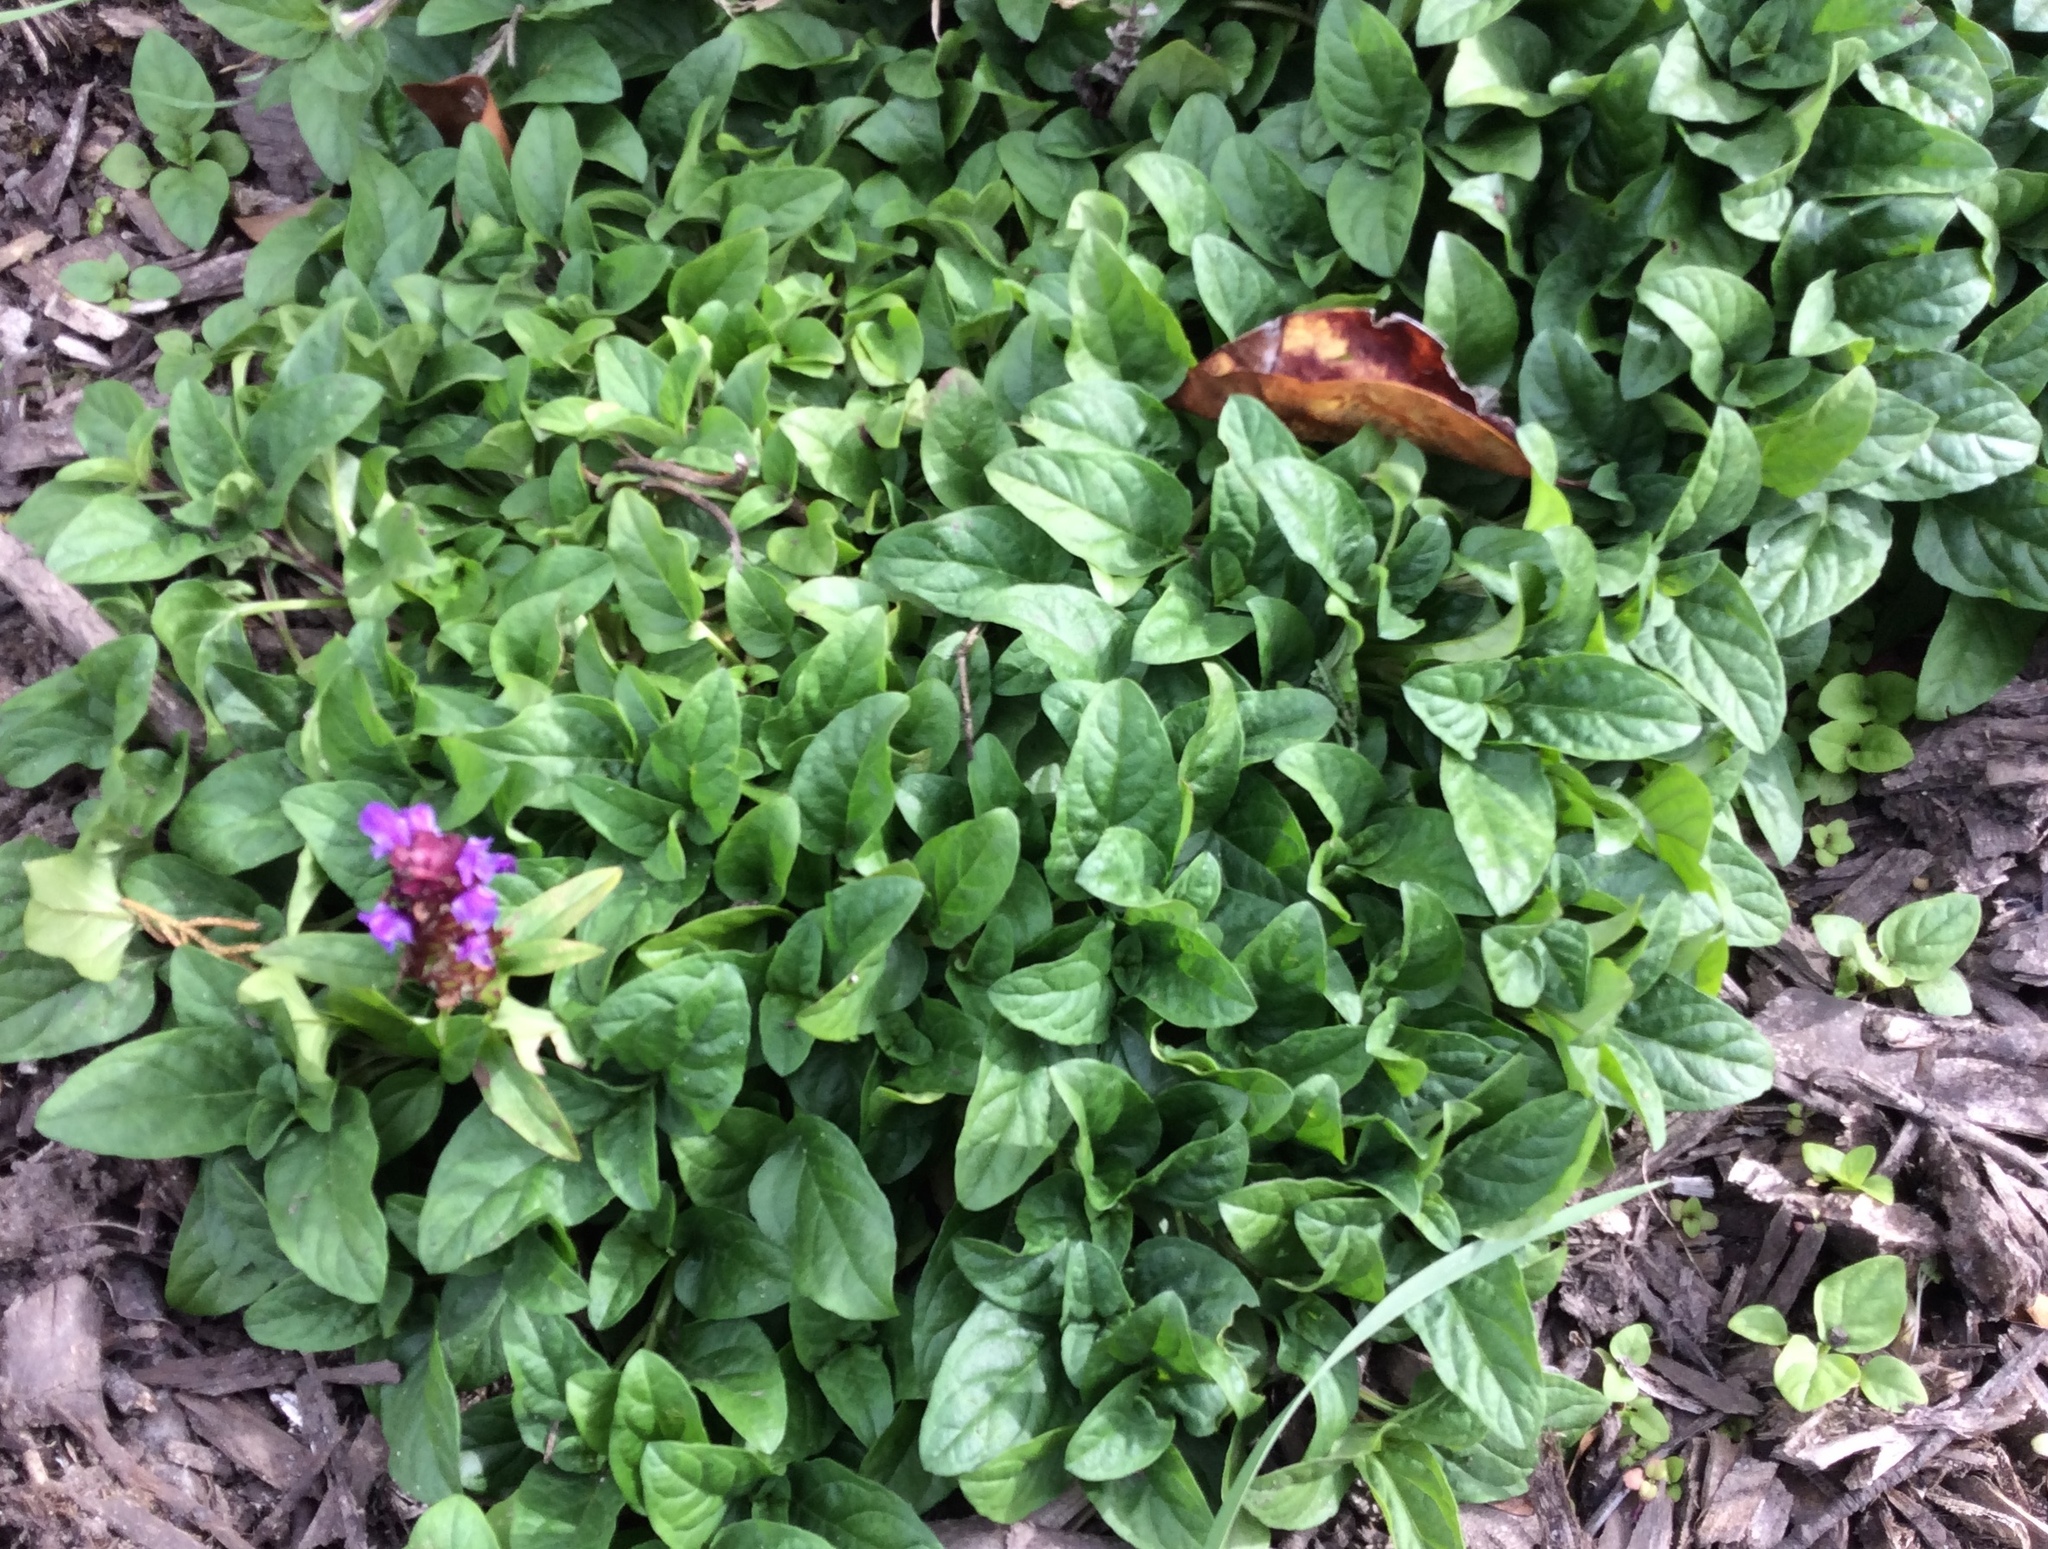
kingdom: Plantae
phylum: Tracheophyta
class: Magnoliopsida
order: Lamiales
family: Lamiaceae
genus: Prunella
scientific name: Prunella vulgaris
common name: Heal-all
